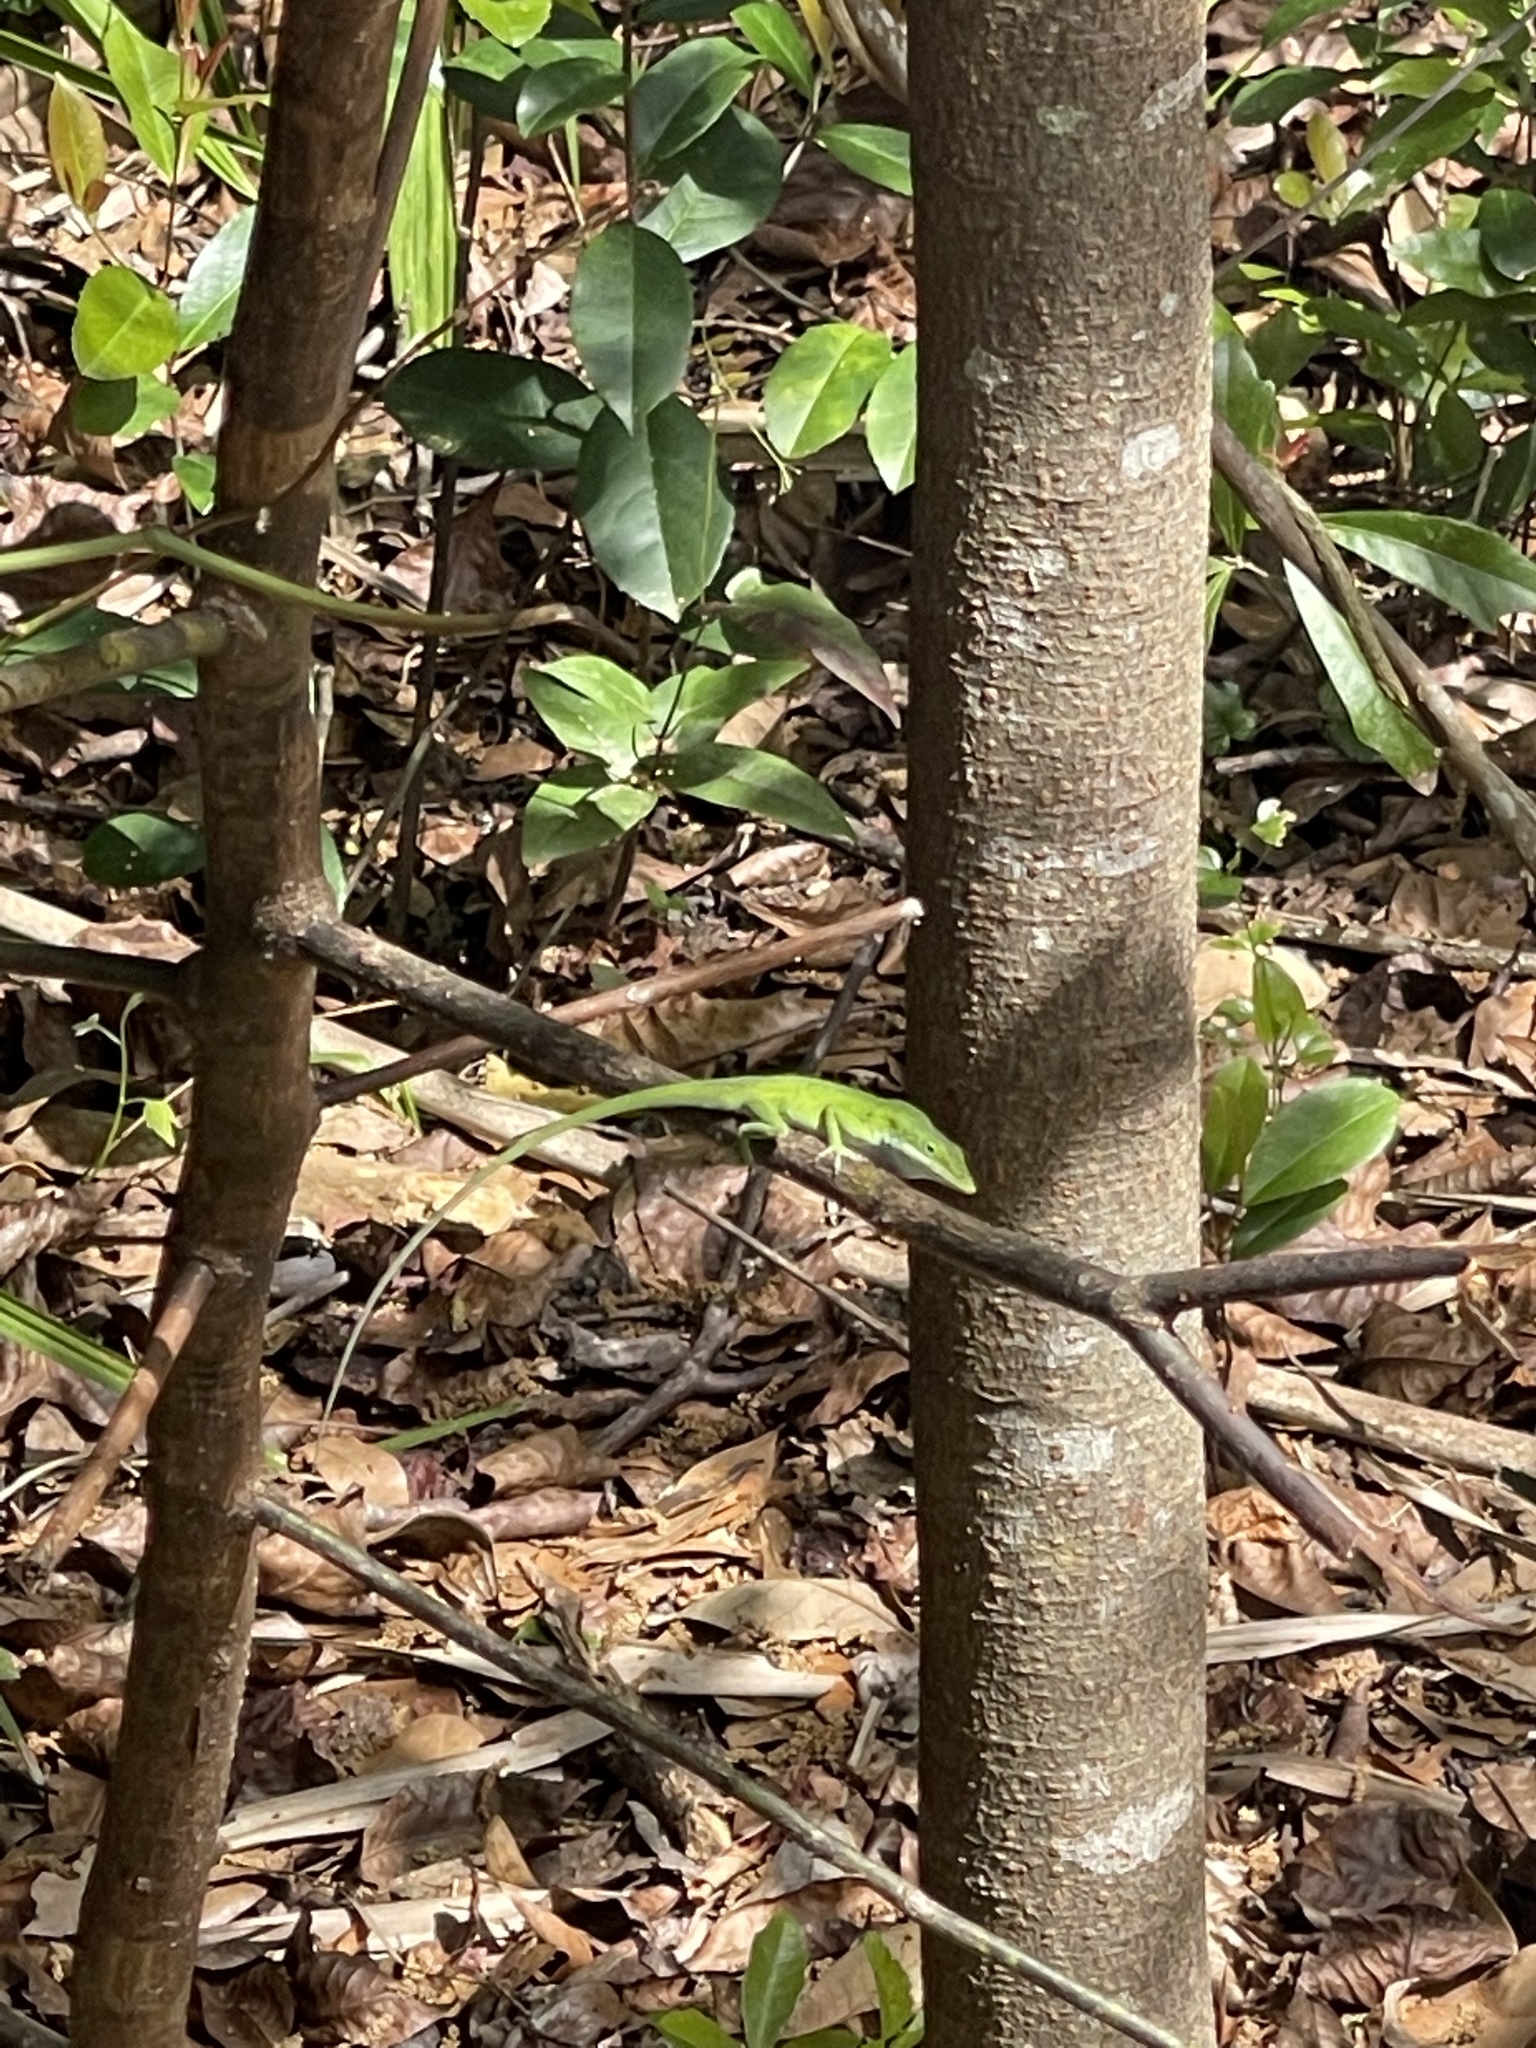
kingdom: Animalia
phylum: Chordata
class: Squamata
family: Dactyloidae
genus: Anolis
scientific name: Anolis carolinensis
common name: Green anole
